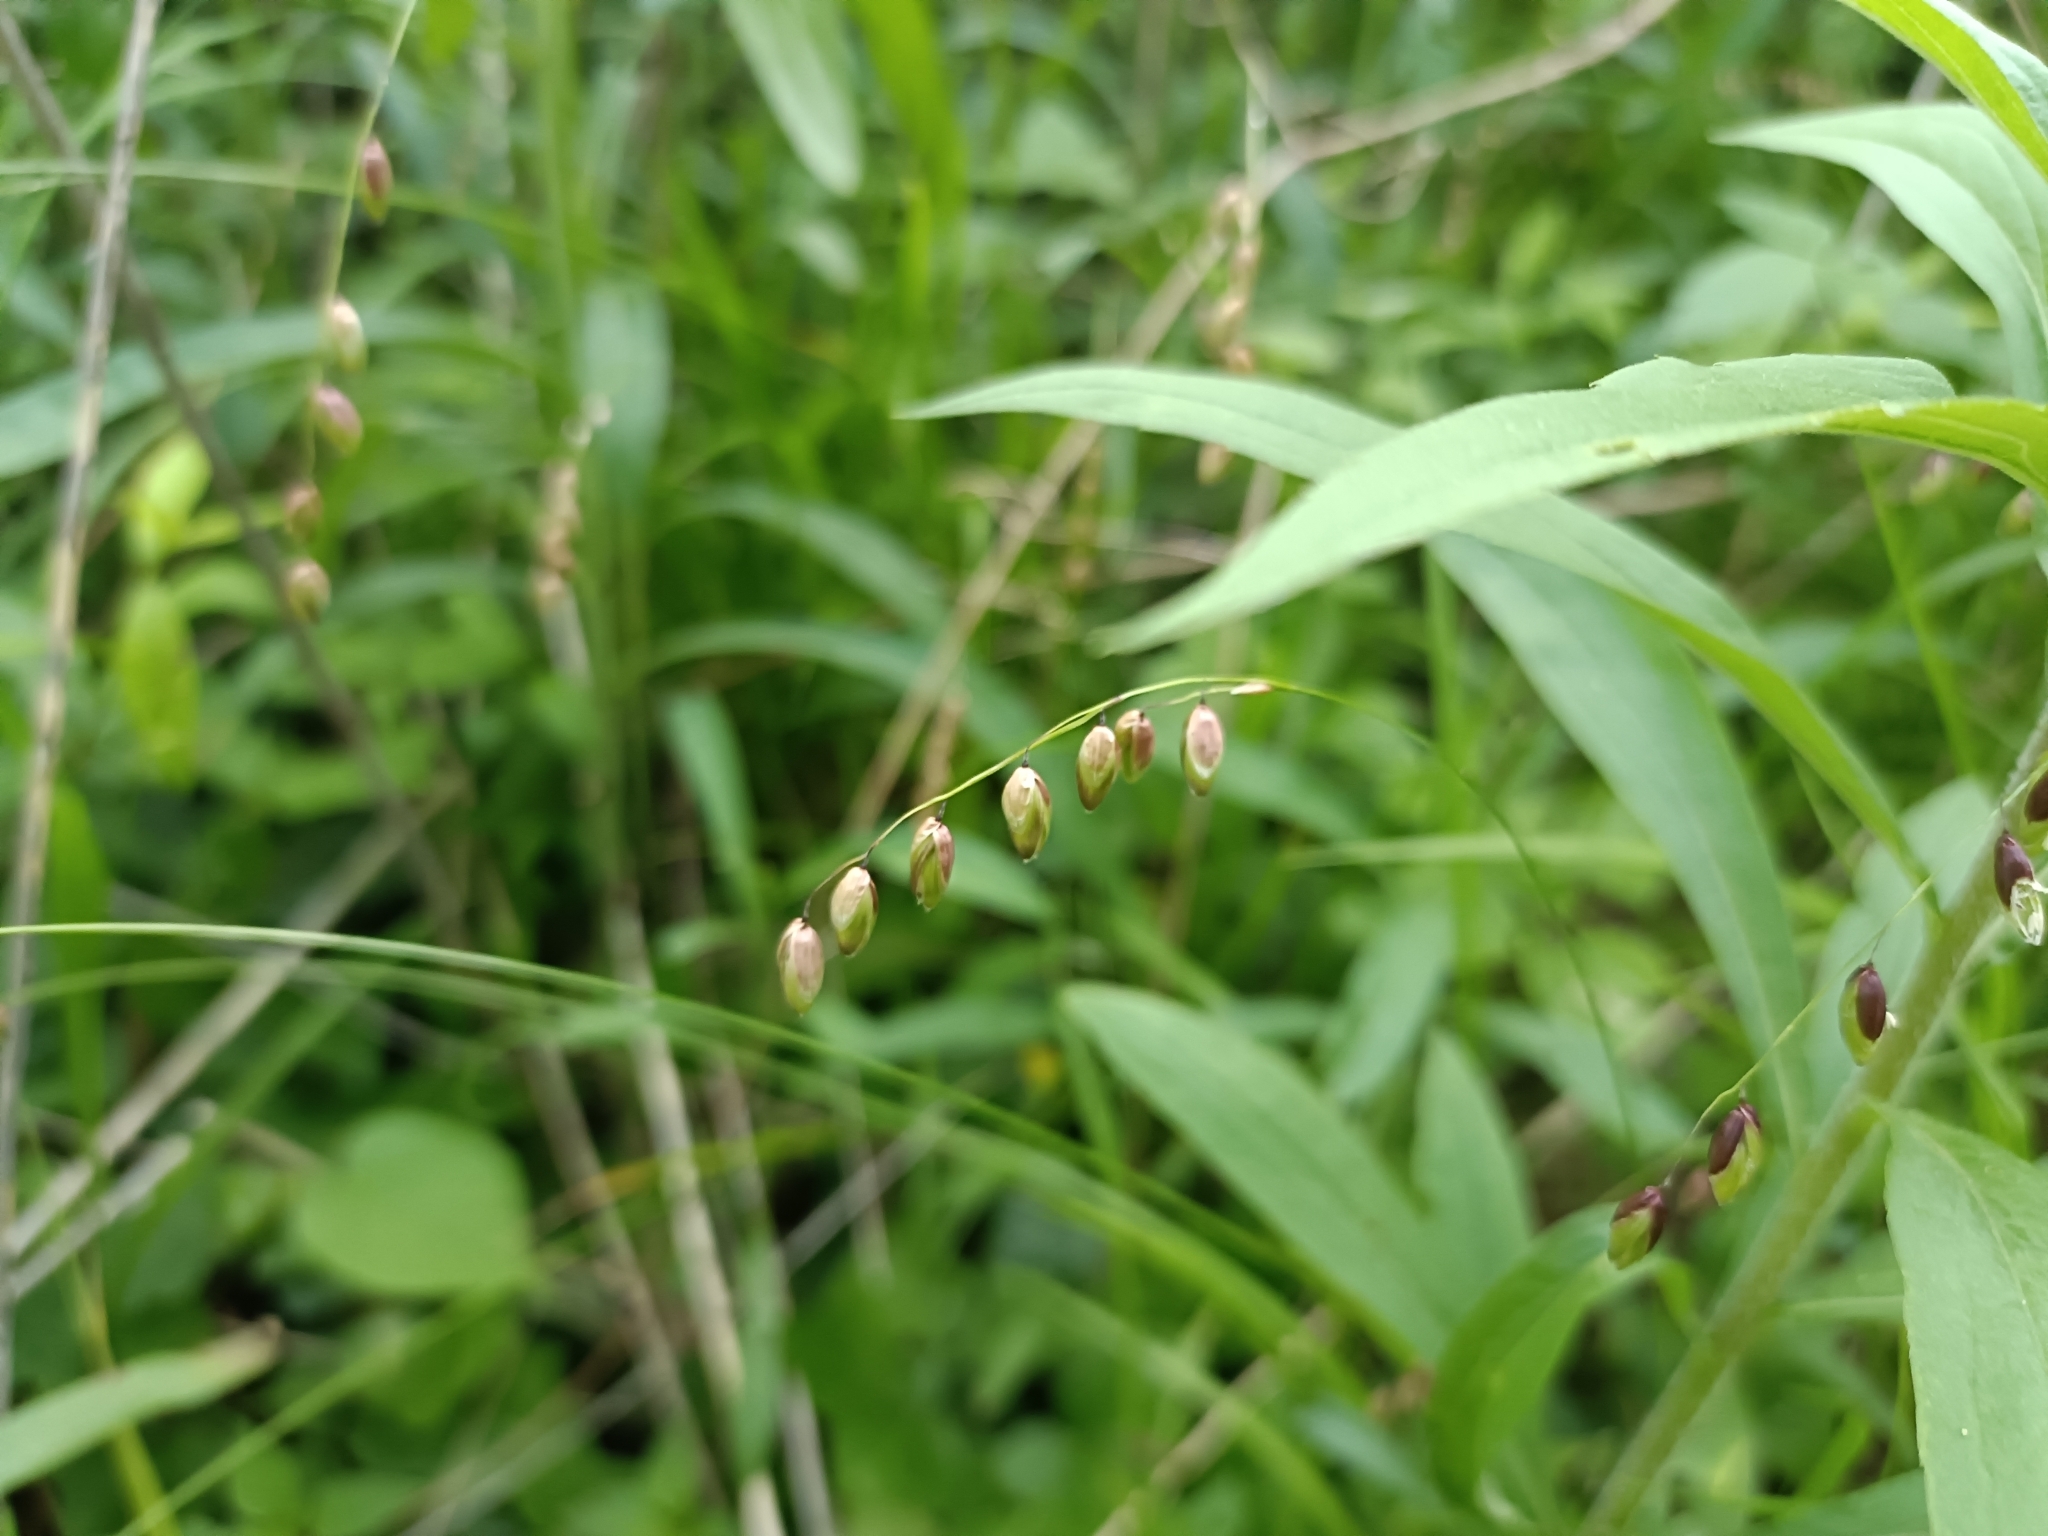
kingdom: Plantae
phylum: Tracheophyta
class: Liliopsida
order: Poales
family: Poaceae
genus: Melica
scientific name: Melica nutans
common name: Mountain melick
